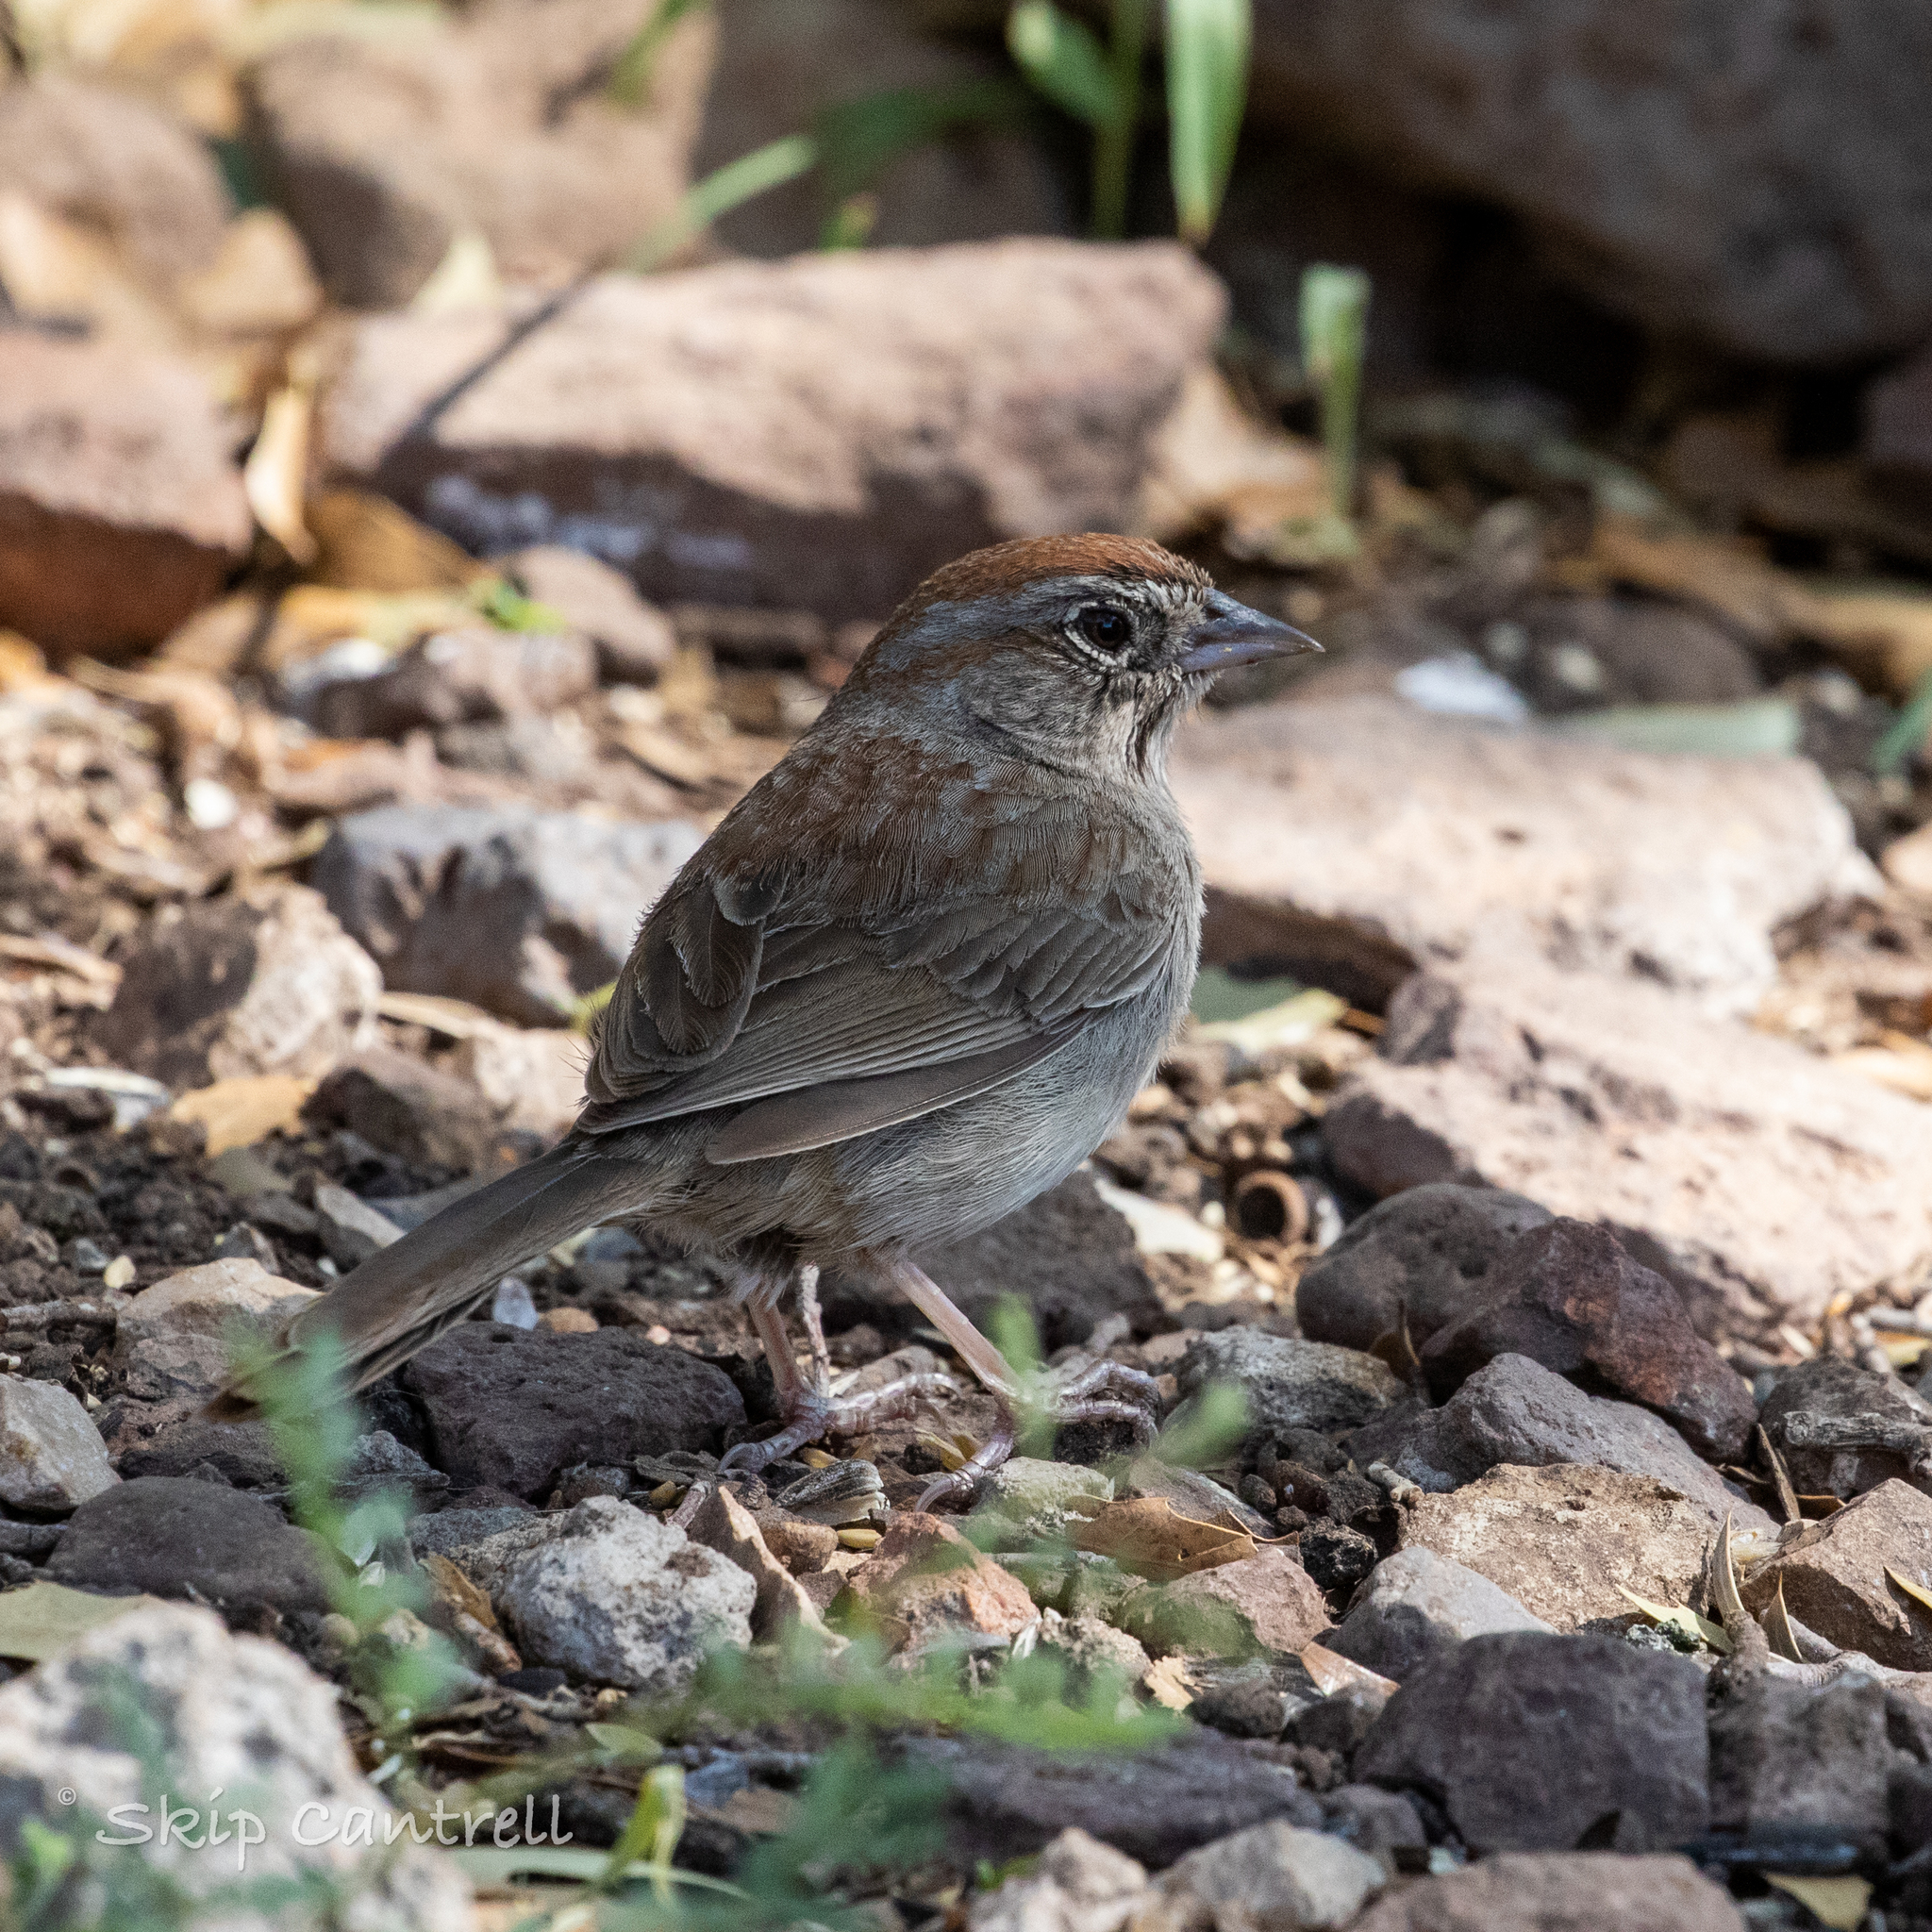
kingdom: Animalia
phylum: Chordata
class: Aves
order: Passeriformes
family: Passerellidae
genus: Aimophila
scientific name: Aimophila ruficeps
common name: Rufous-crowned sparrow
